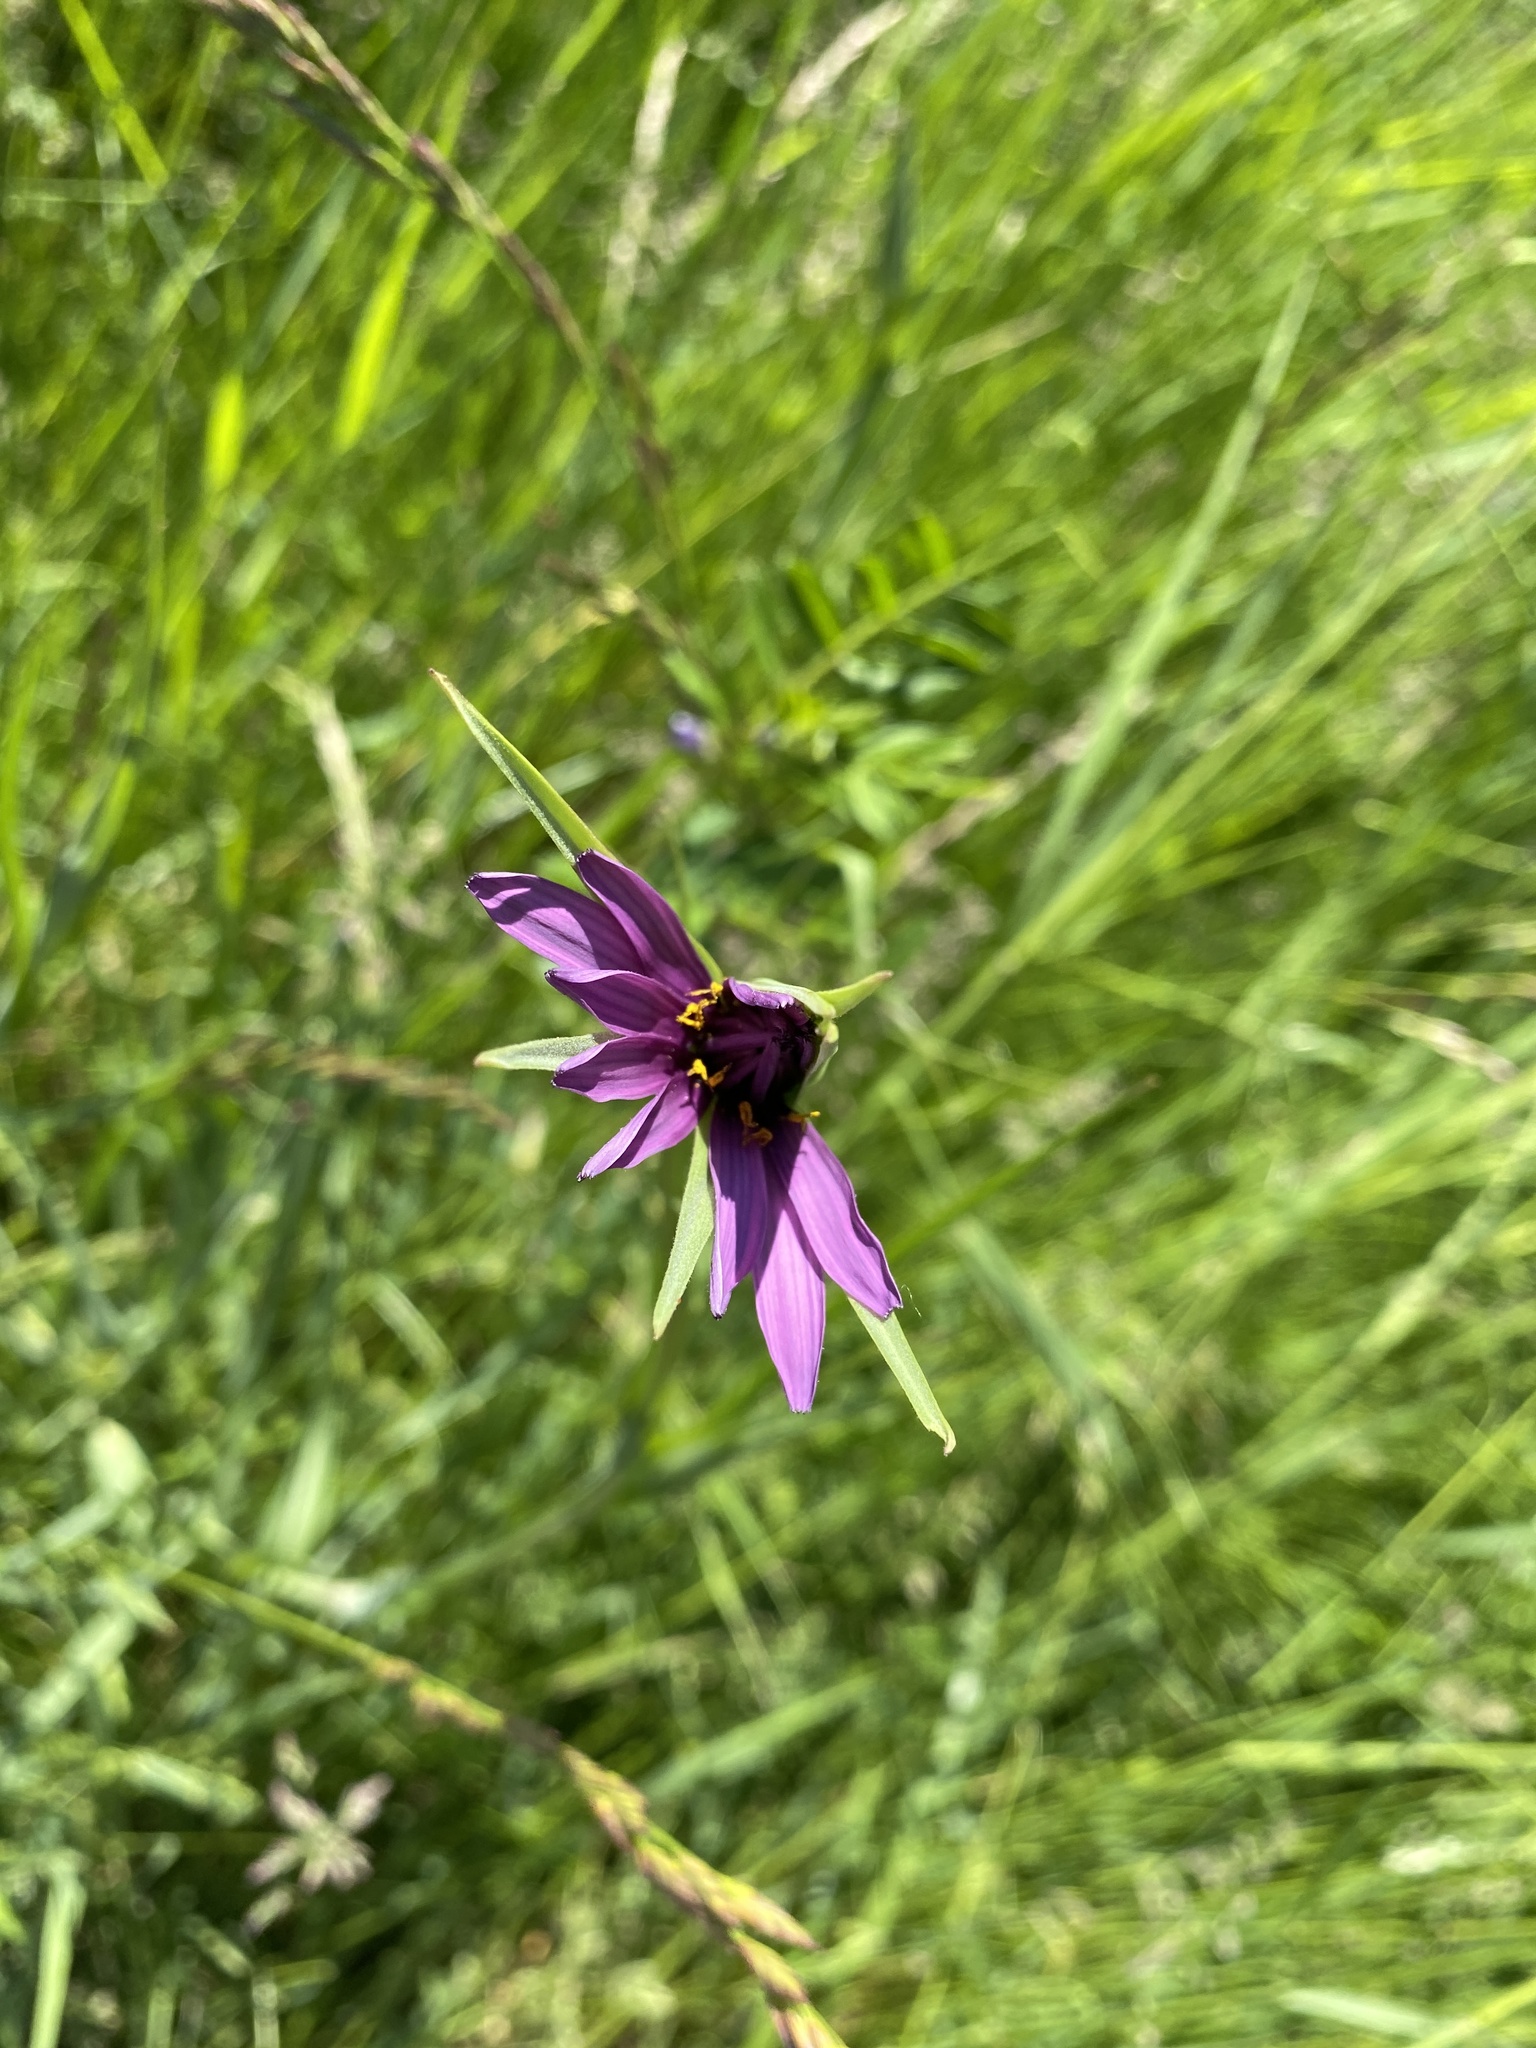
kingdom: Plantae
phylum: Tracheophyta
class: Magnoliopsida
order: Asterales
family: Asteraceae
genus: Tragopogon
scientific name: Tragopogon porrifolius
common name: Salsify
